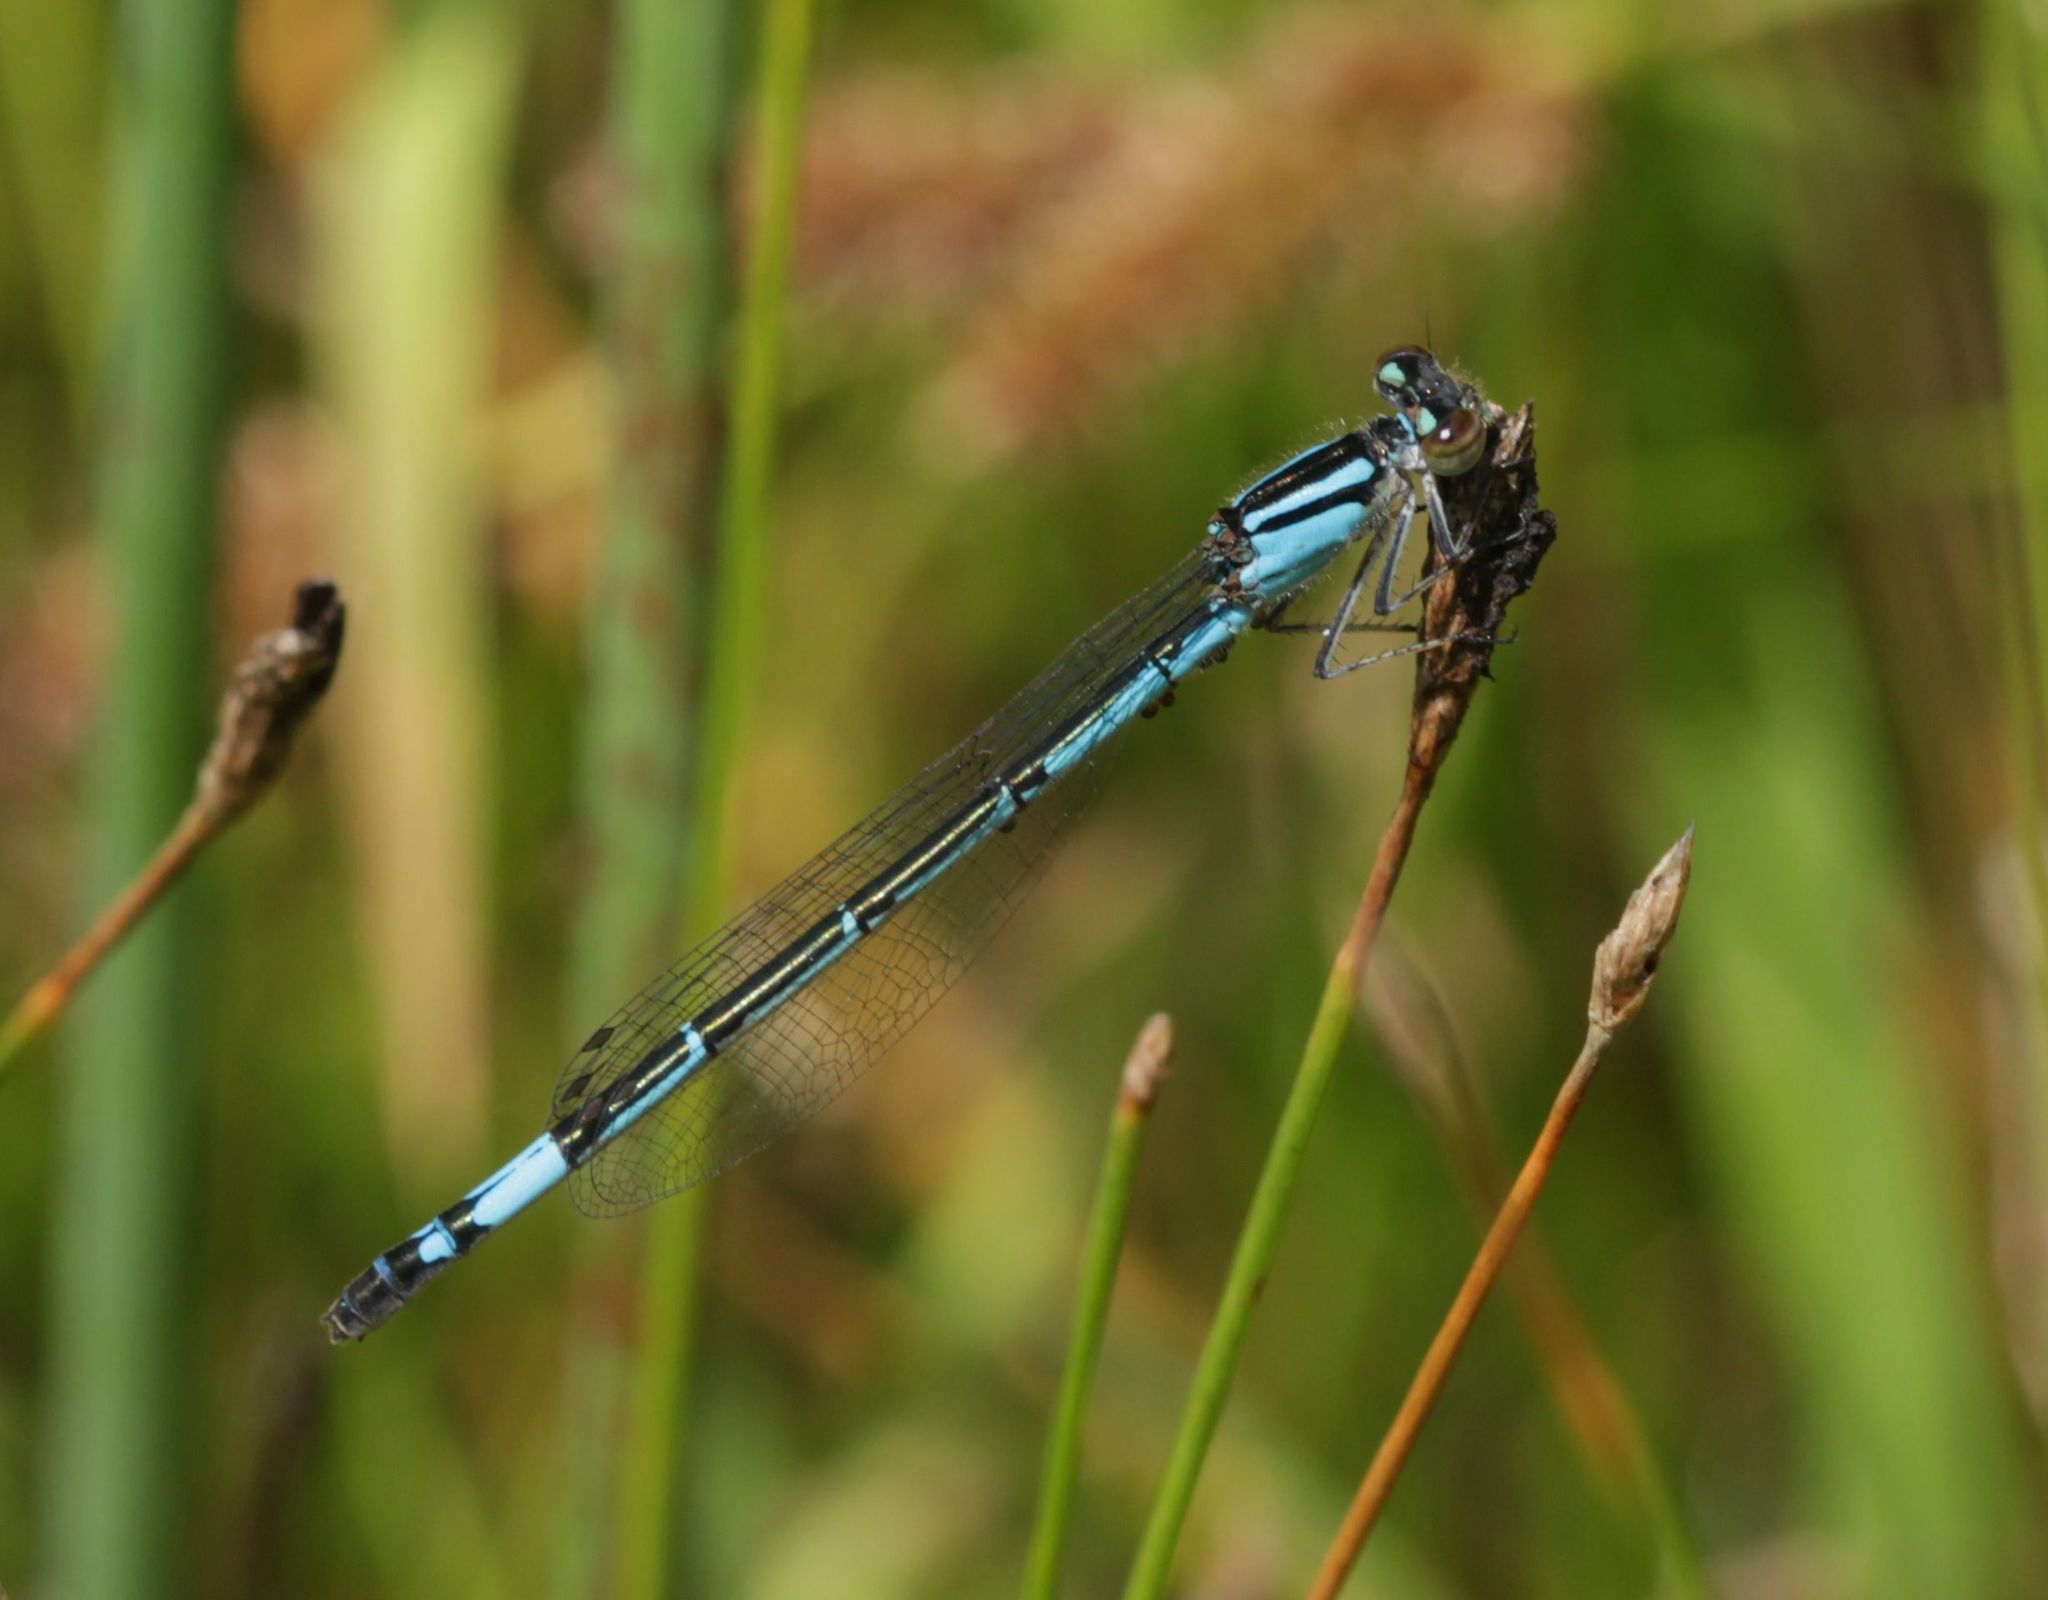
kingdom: Animalia
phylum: Arthropoda
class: Insecta
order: Odonata
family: Coenagrionidae
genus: Enallagma
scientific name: Enallagma aspersum
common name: Azure bluet
